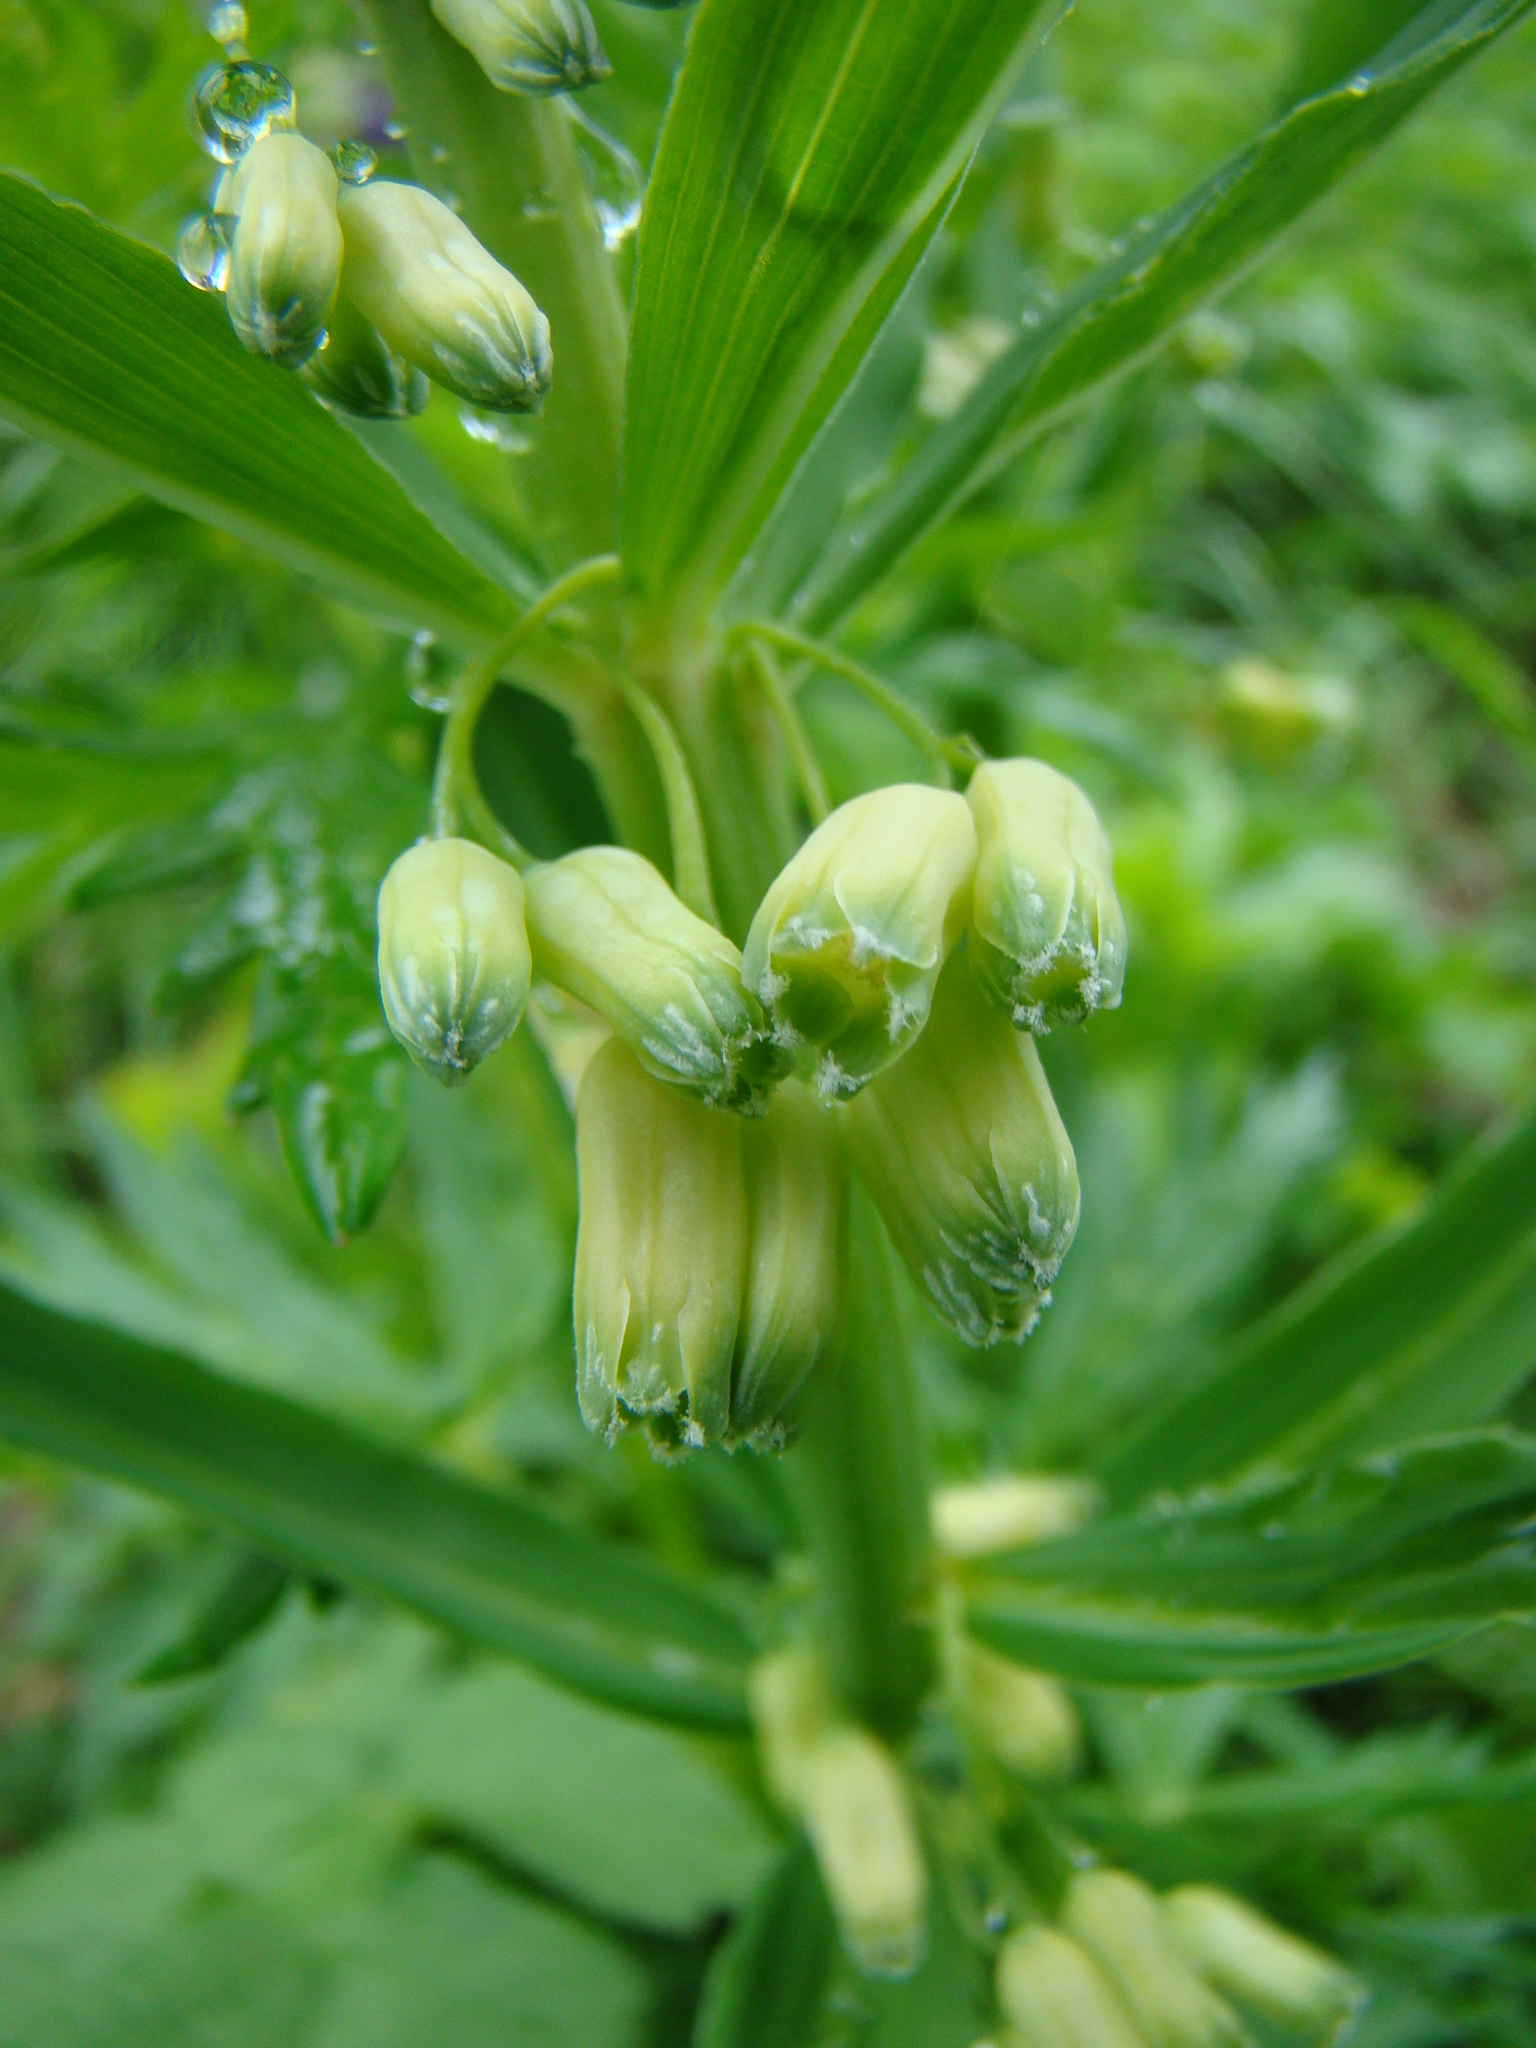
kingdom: Plantae
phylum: Tracheophyta
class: Liliopsida
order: Asparagales
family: Asparagaceae
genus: Polygonatum
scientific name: Polygonatum verticillatum
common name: Whorled solomon's-seal
